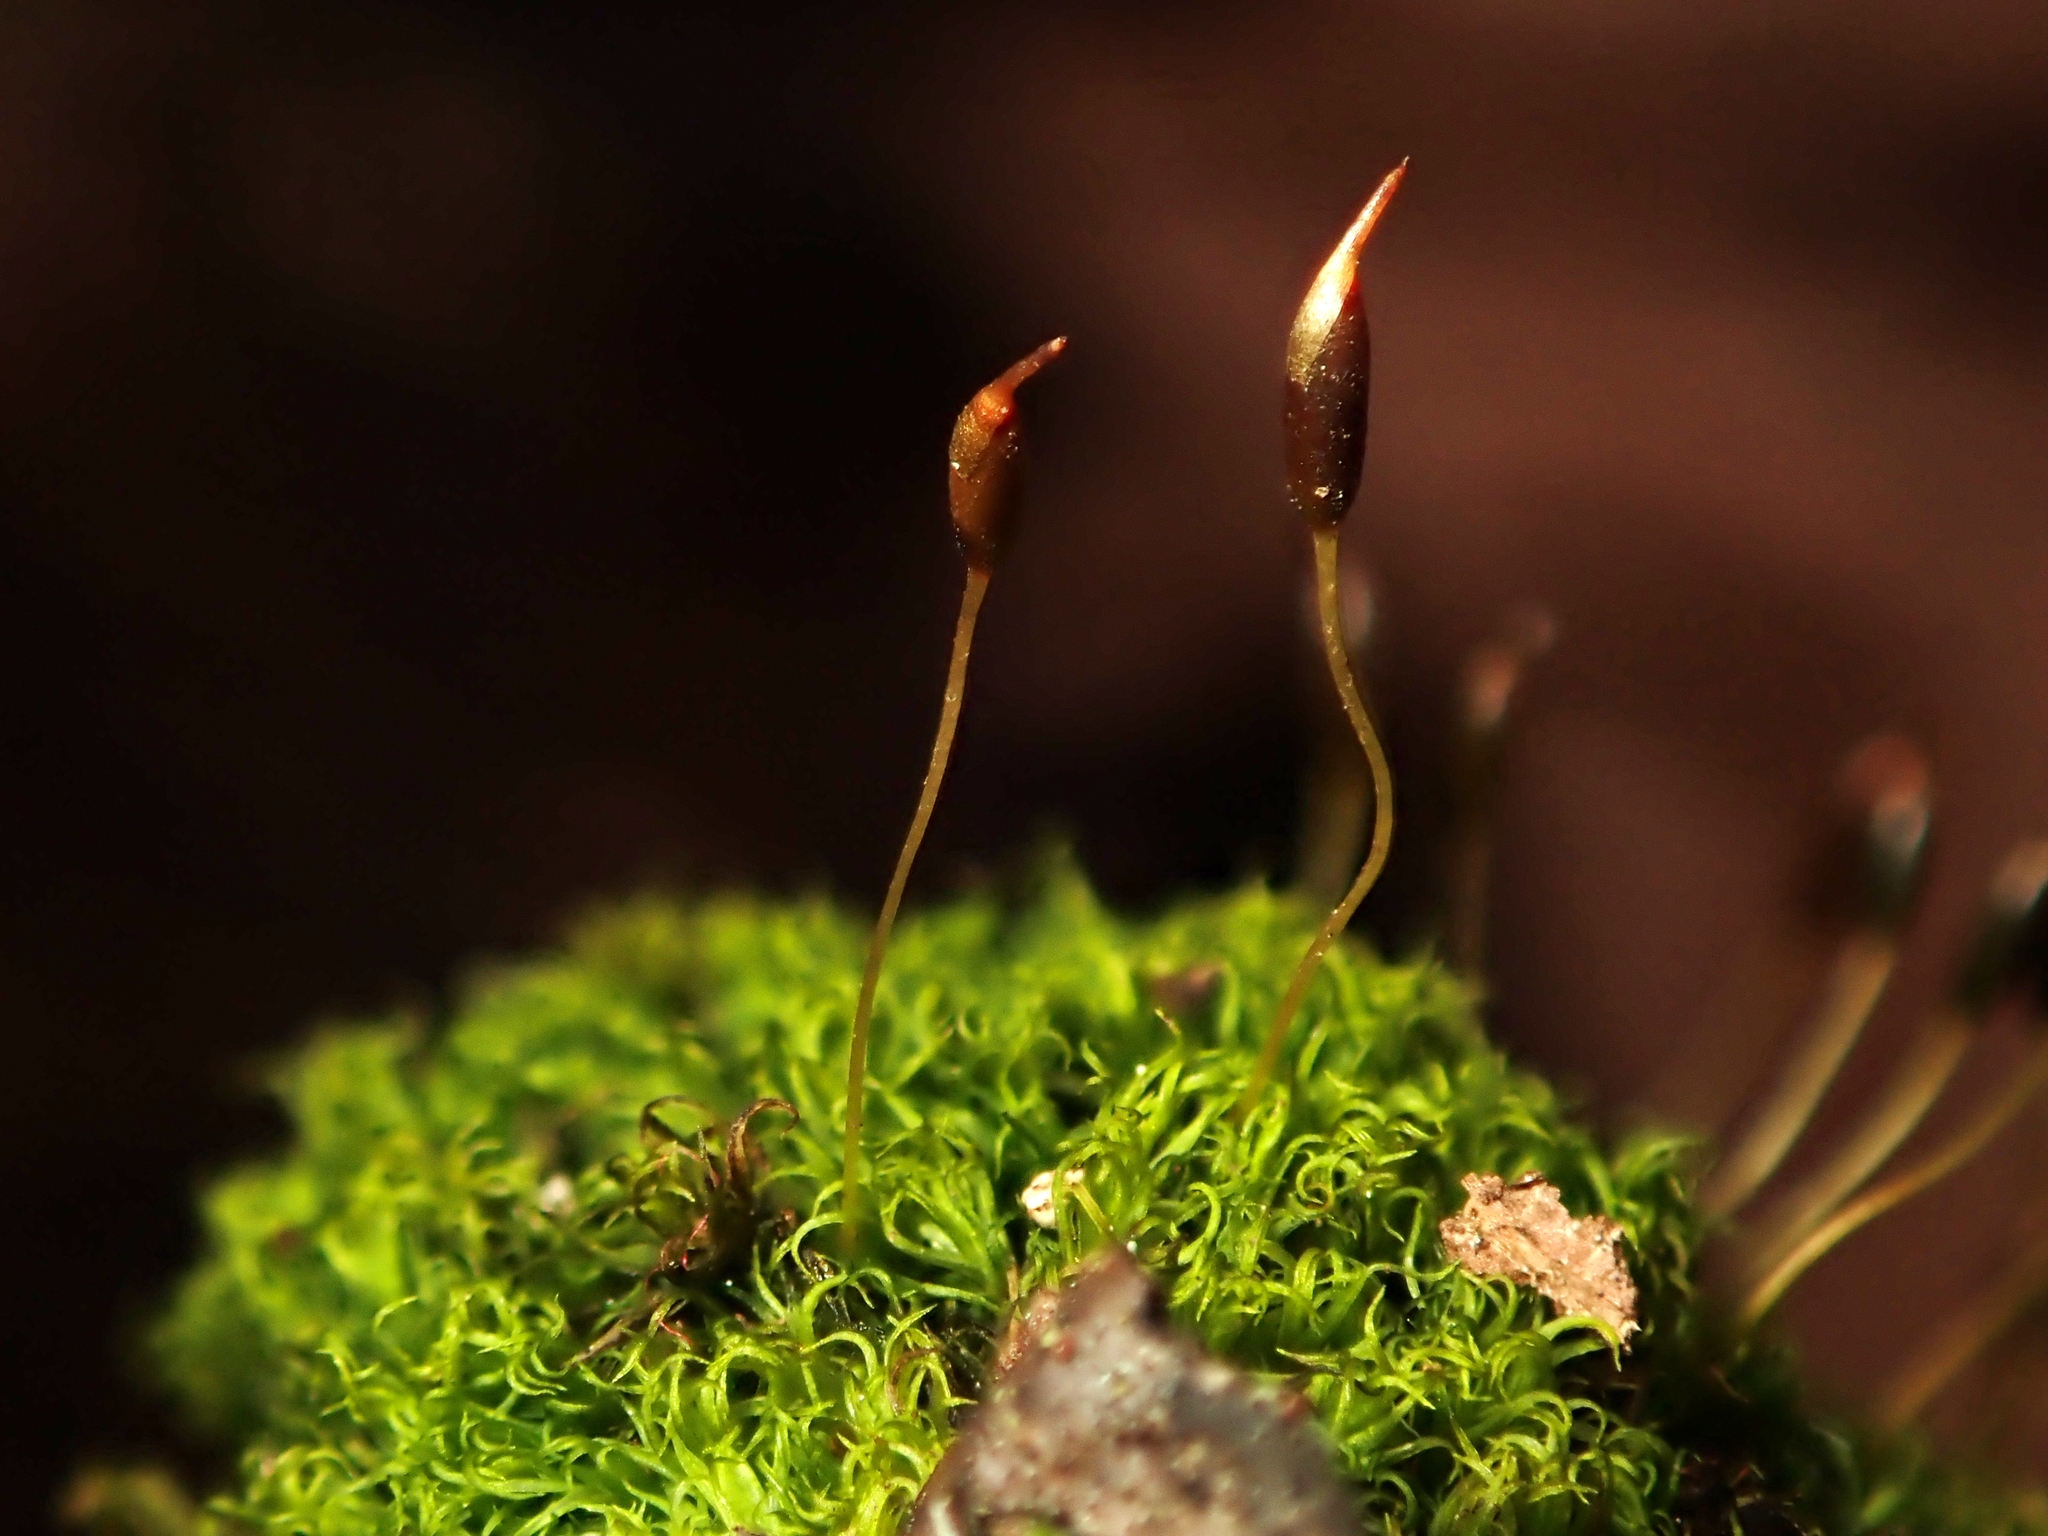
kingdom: Plantae
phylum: Bryophyta
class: Bryopsida
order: Dicranales
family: Rhabdoweisiaceae
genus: Dicranoweisia
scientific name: Dicranoweisia cirrata
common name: Common pincushion
